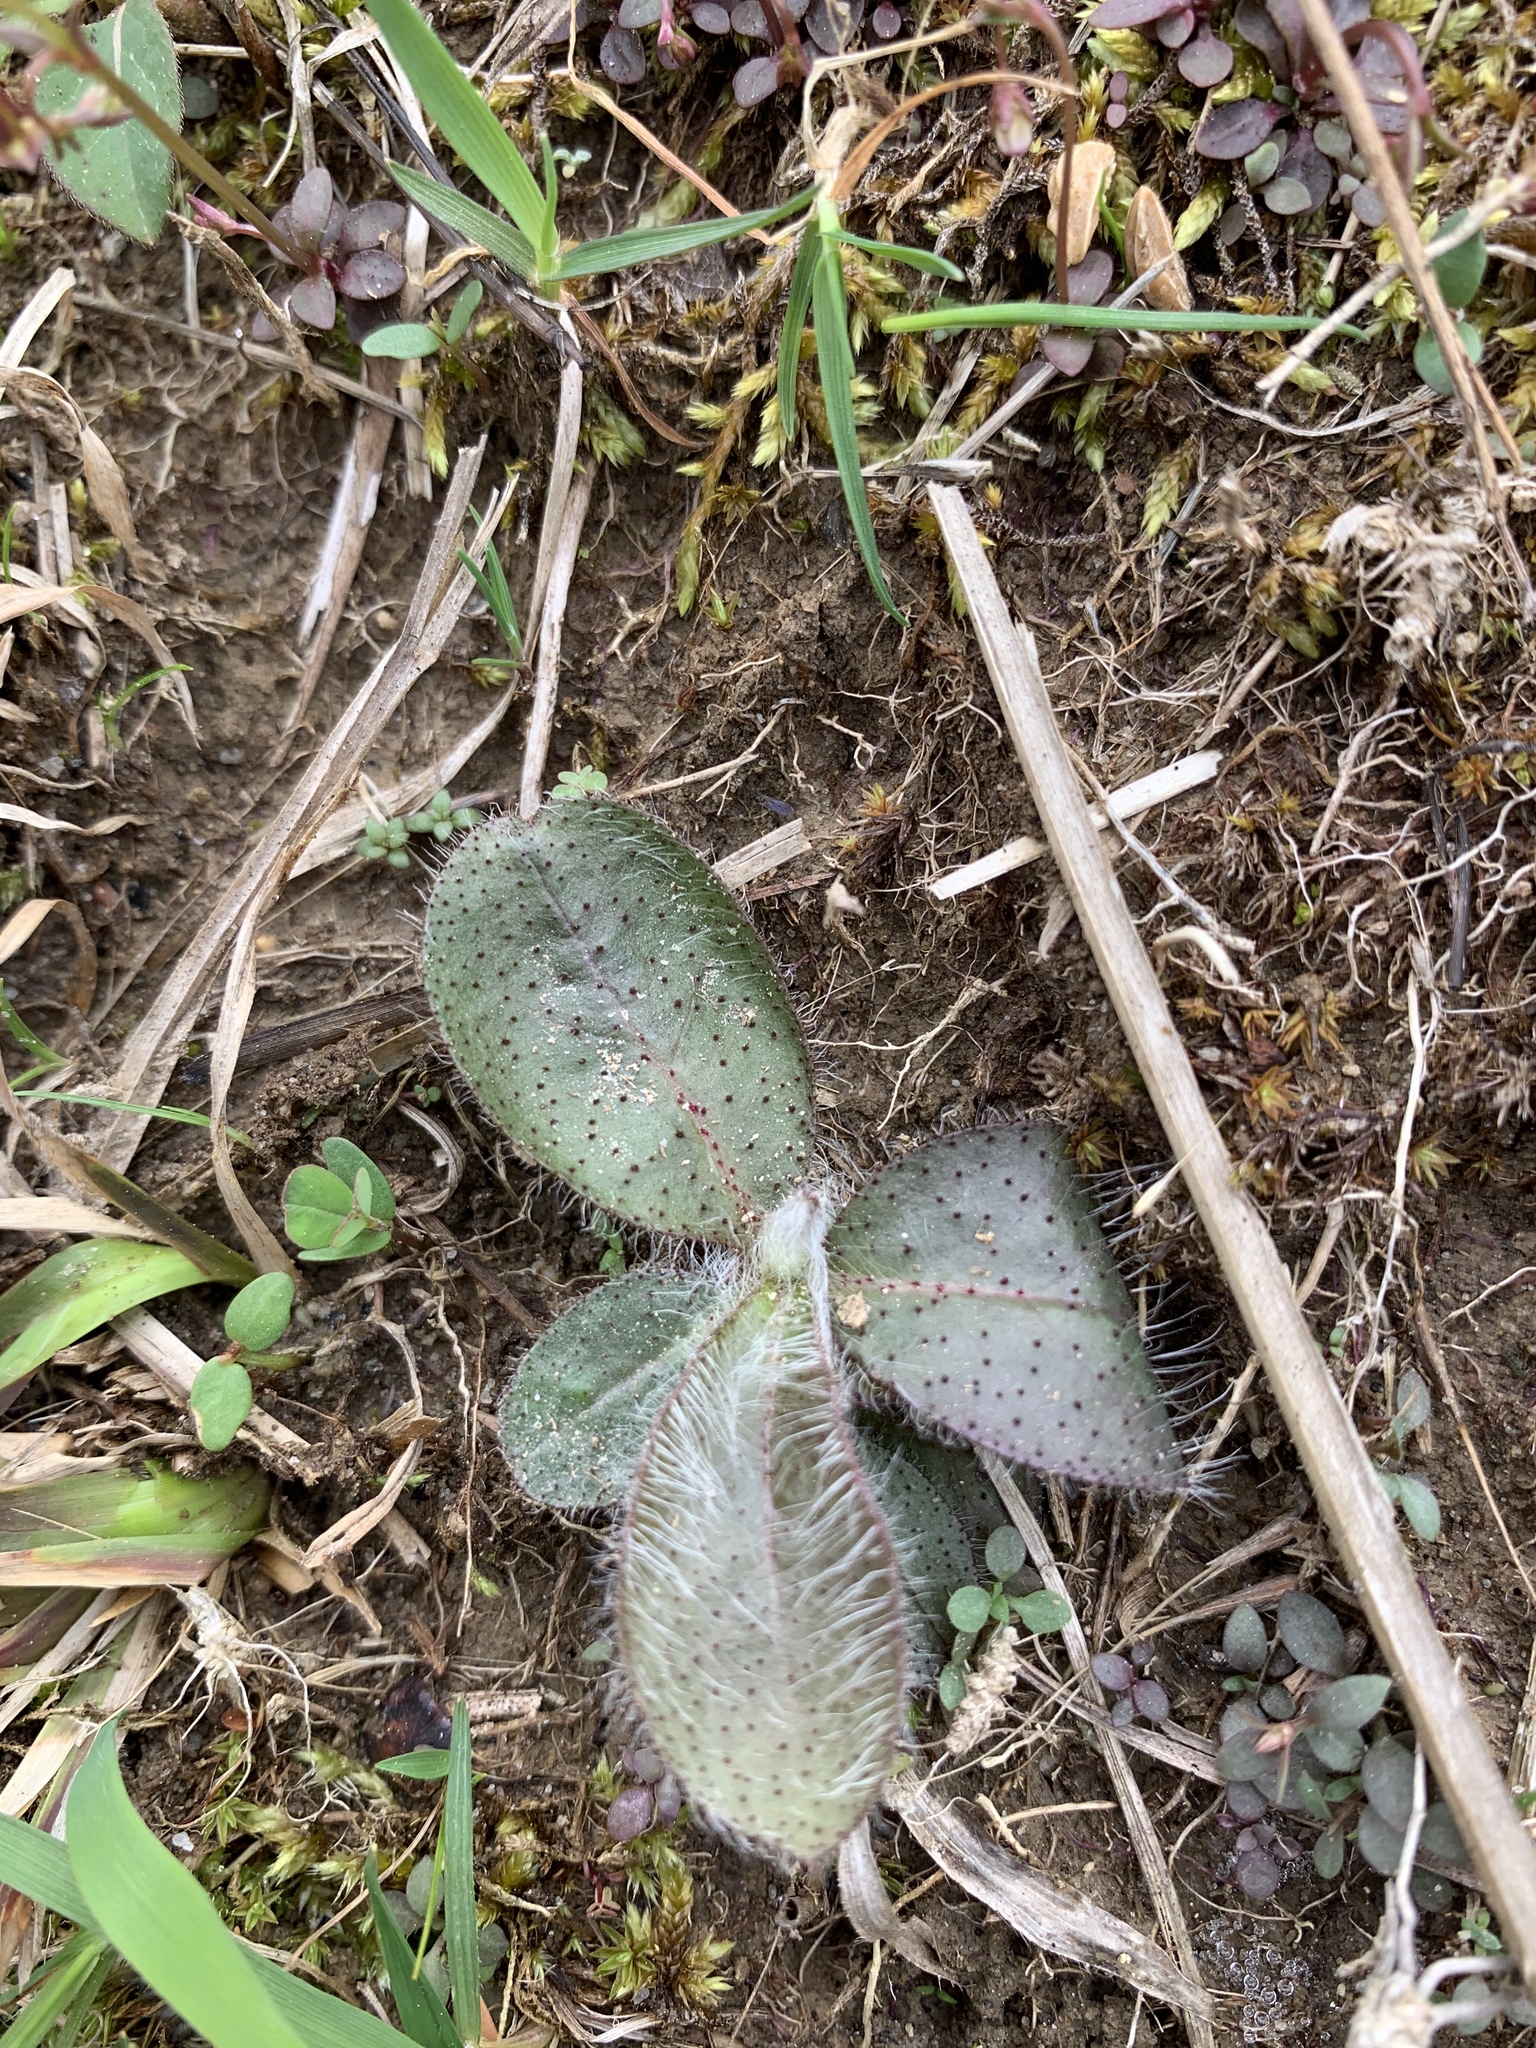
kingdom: Plantae
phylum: Tracheophyta
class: Magnoliopsida
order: Asterales
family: Asteraceae
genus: Hieracium
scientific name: Hieracium venosum
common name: Rattlesnake hawkweed
